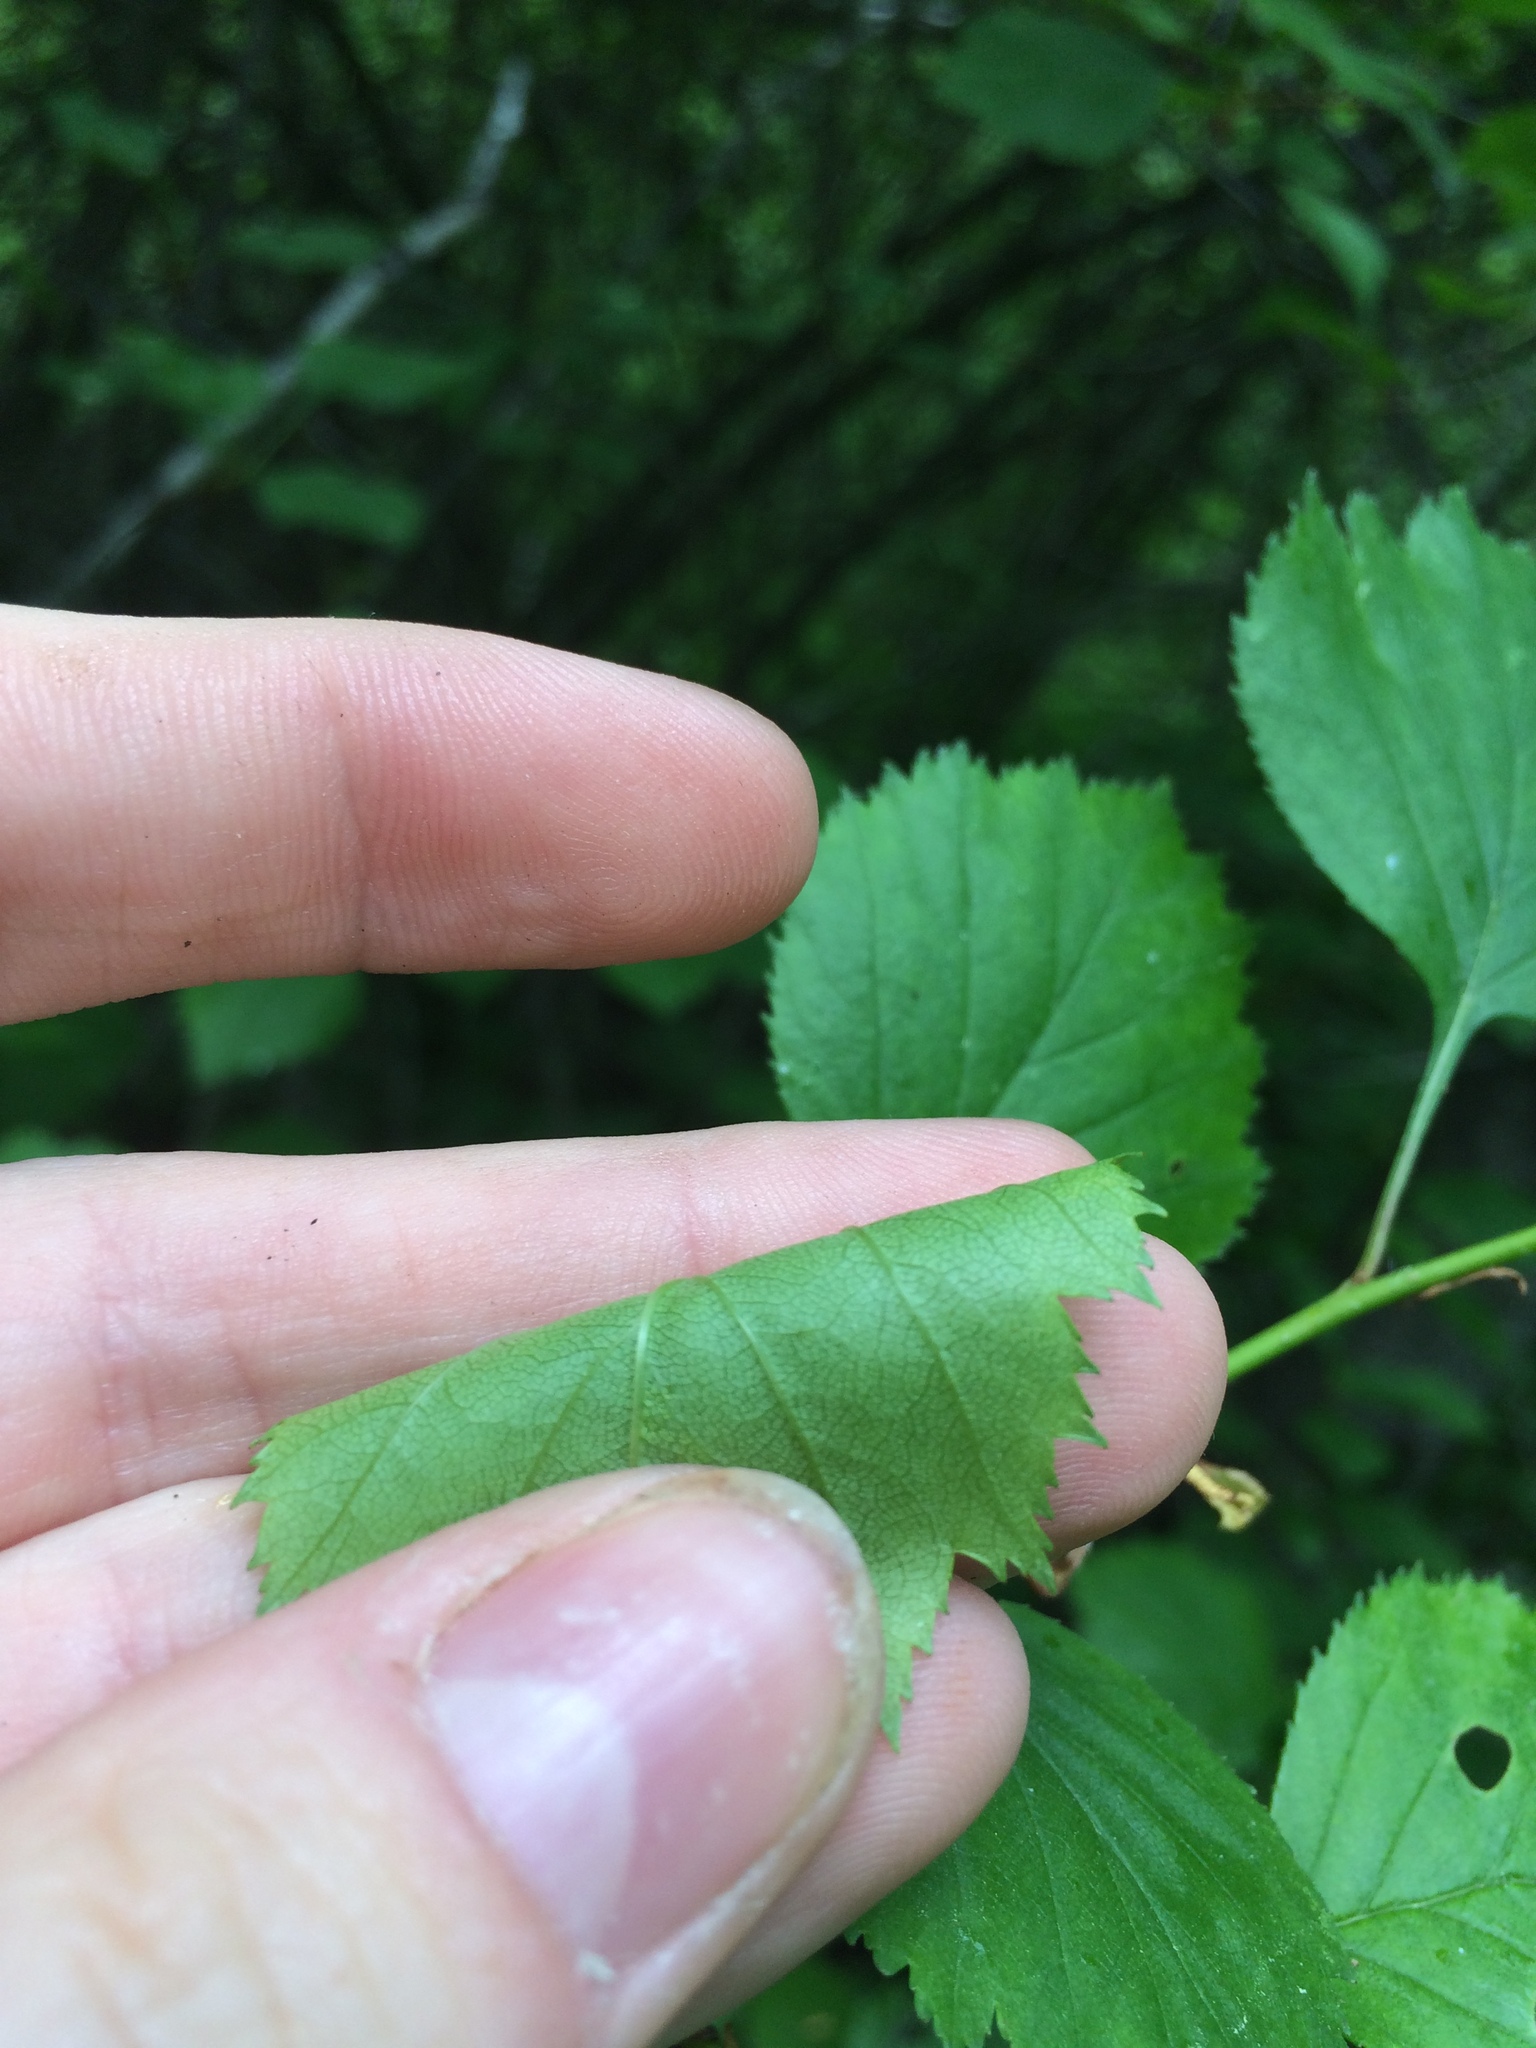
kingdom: Plantae
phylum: Tracheophyta
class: Magnoliopsida
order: Rosales
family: Rosaceae
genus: Crataegus
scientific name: Crataegus chrysocarpa
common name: Fire-berry hawthorn
